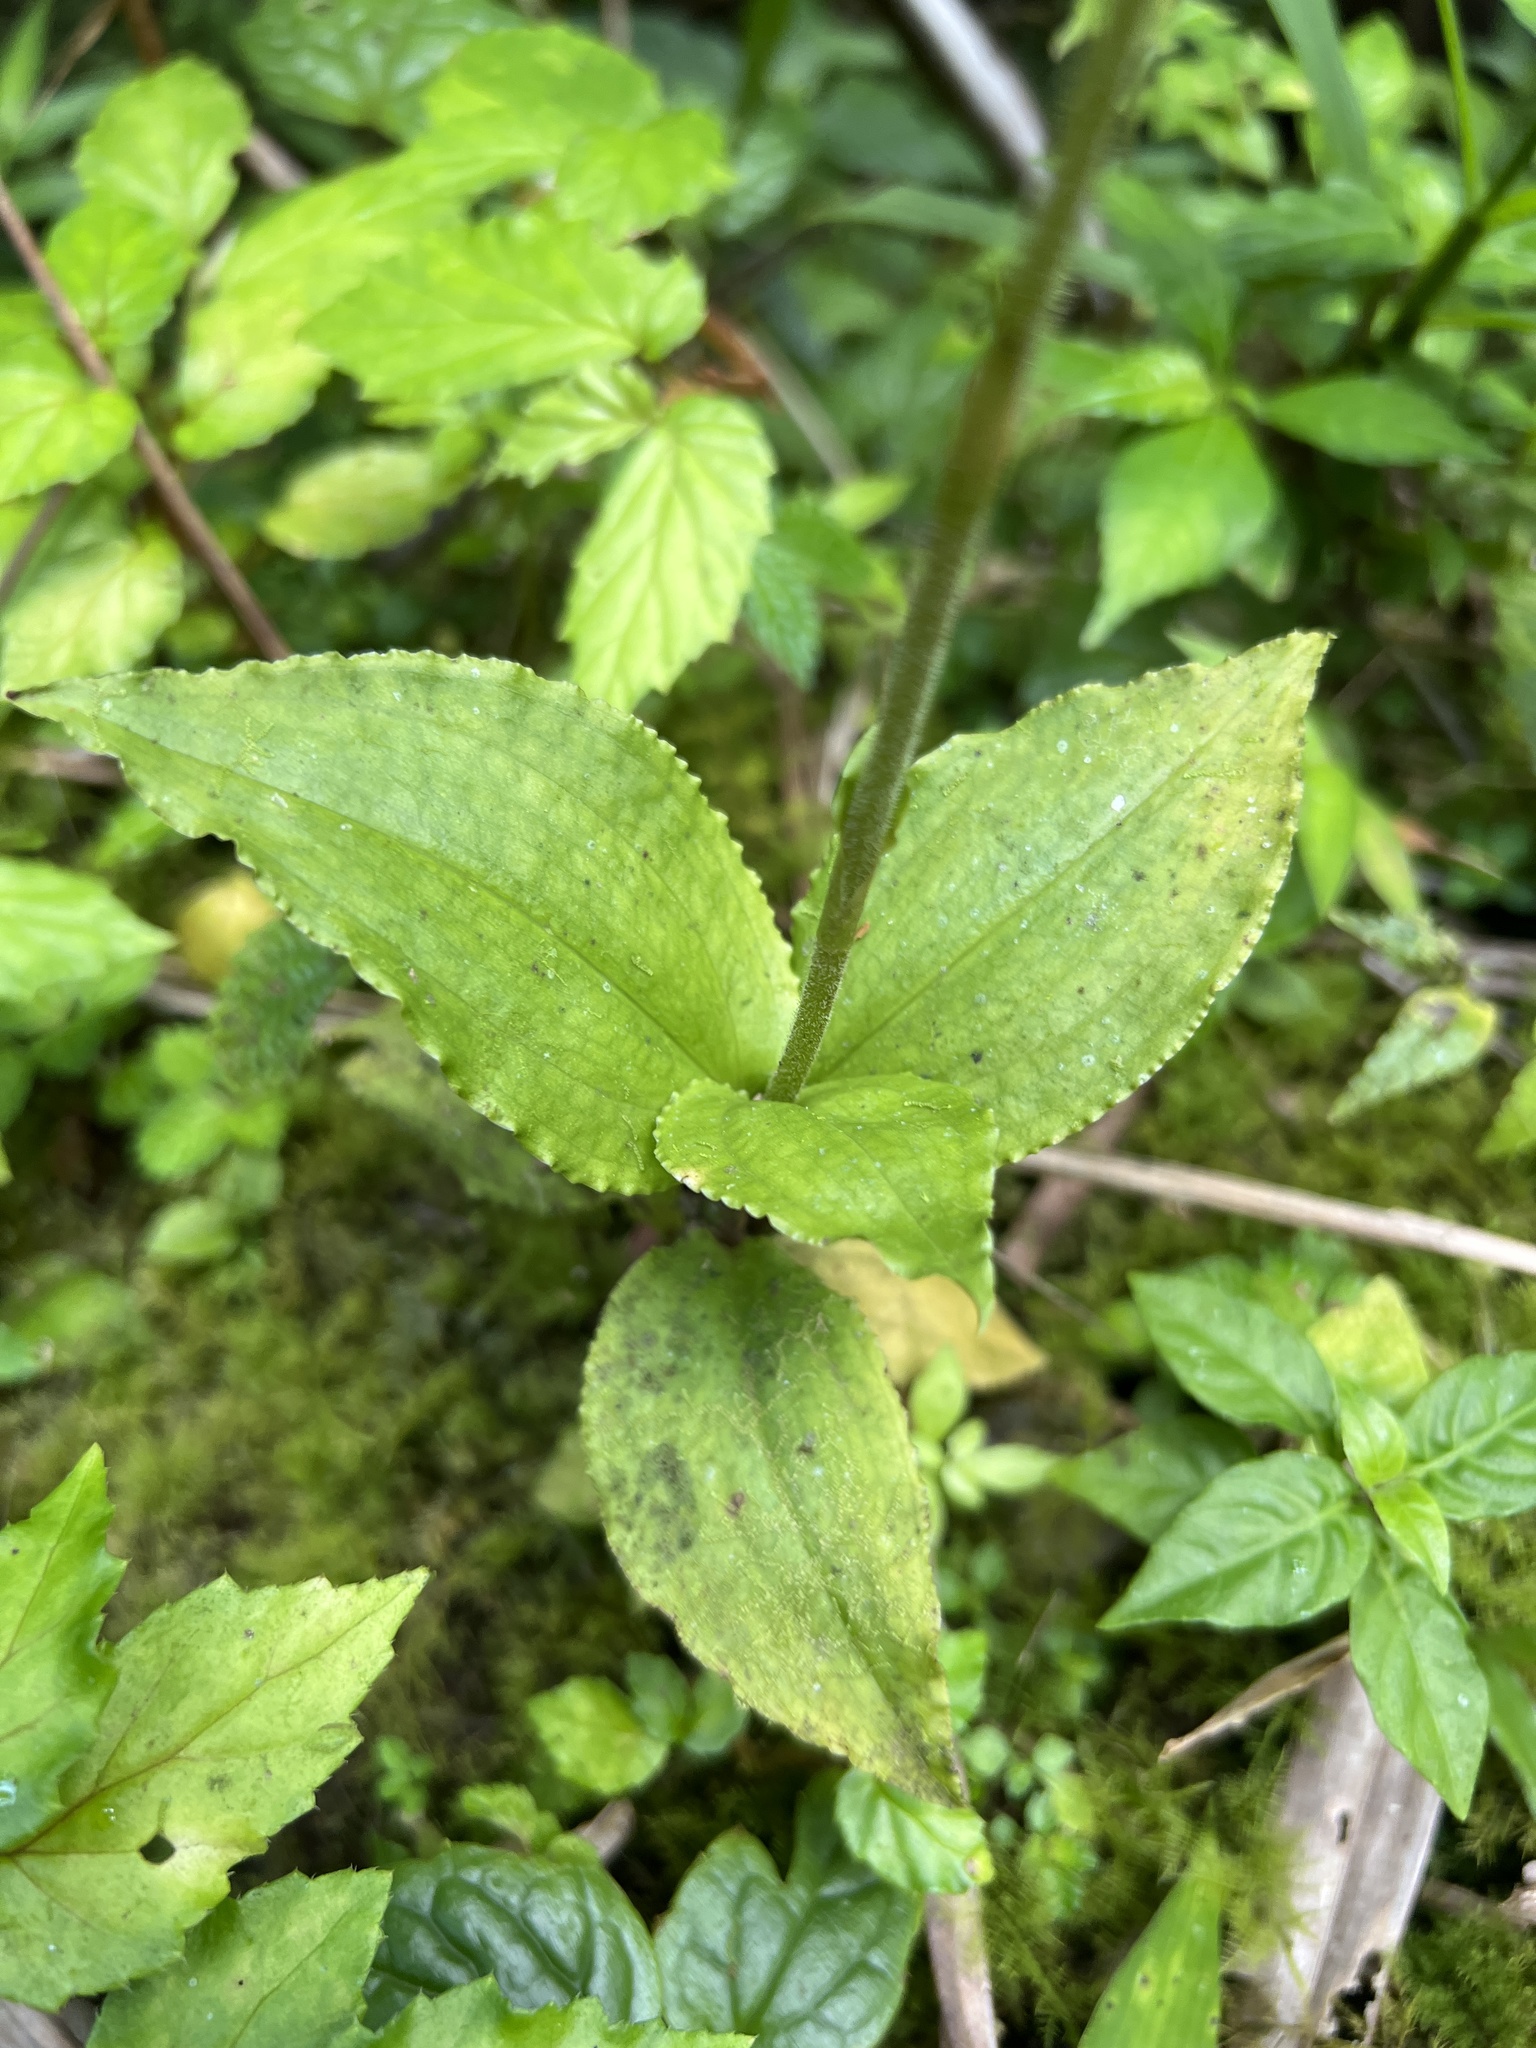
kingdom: Plantae
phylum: Tracheophyta
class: Liliopsida
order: Asparagales
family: Orchidaceae
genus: Microchilus
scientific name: Microchilus plantagineus
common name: Caribbean false helmetorchid
